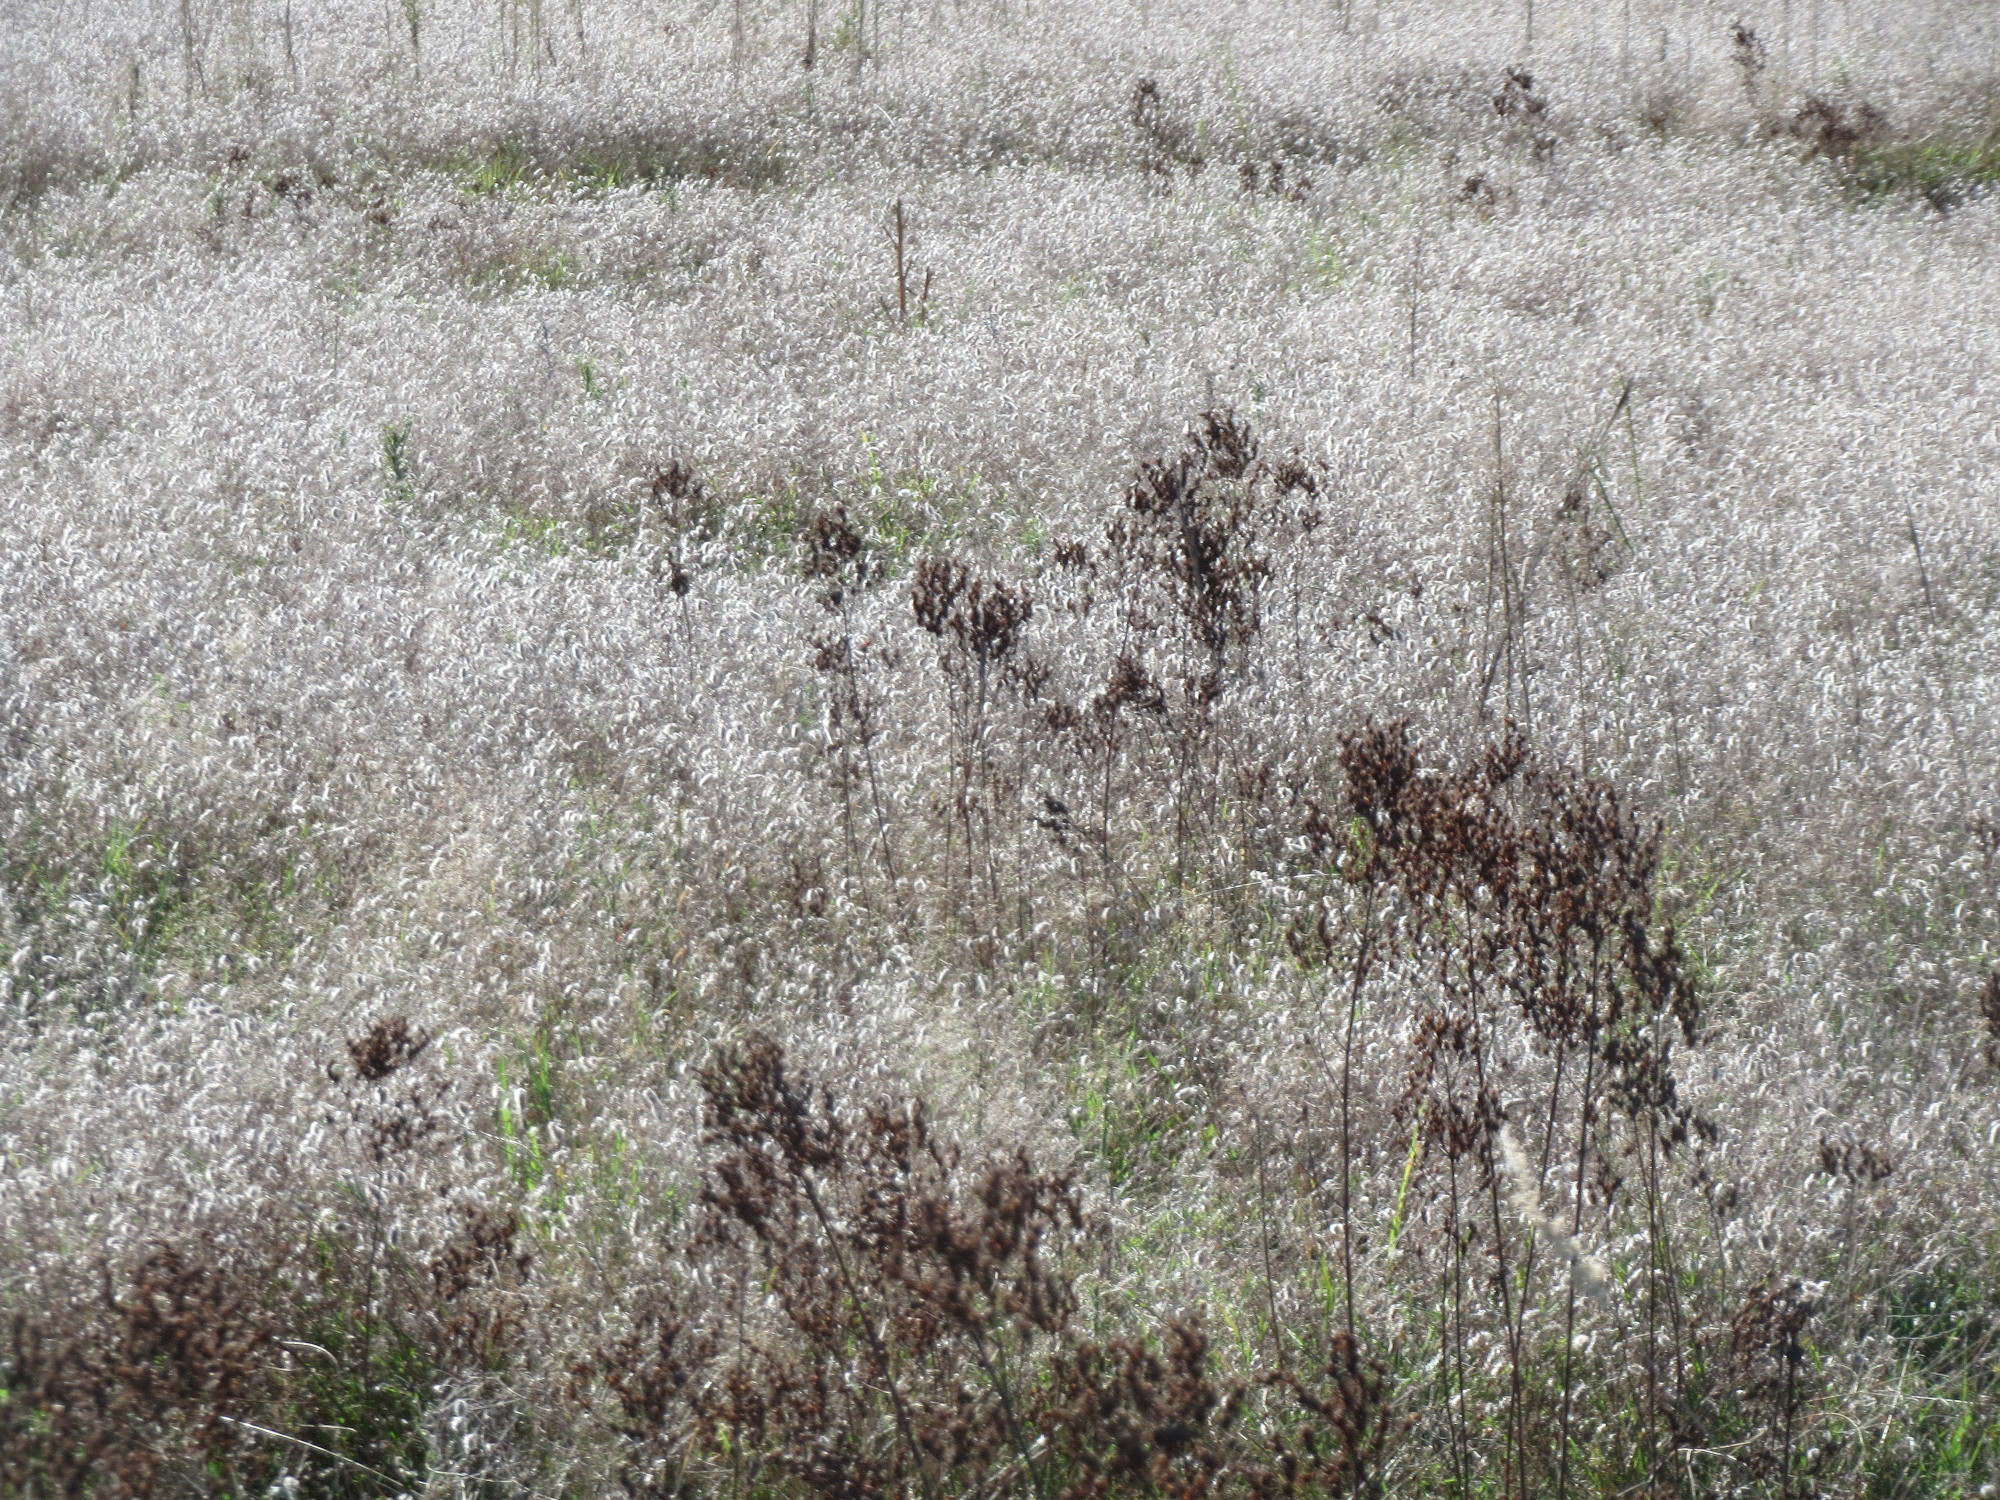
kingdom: Plantae
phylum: Tracheophyta
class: Magnoliopsida
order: Malpighiales
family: Hypericaceae
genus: Hypericum
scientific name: Hypericum perforatum
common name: Common st. johnswort
